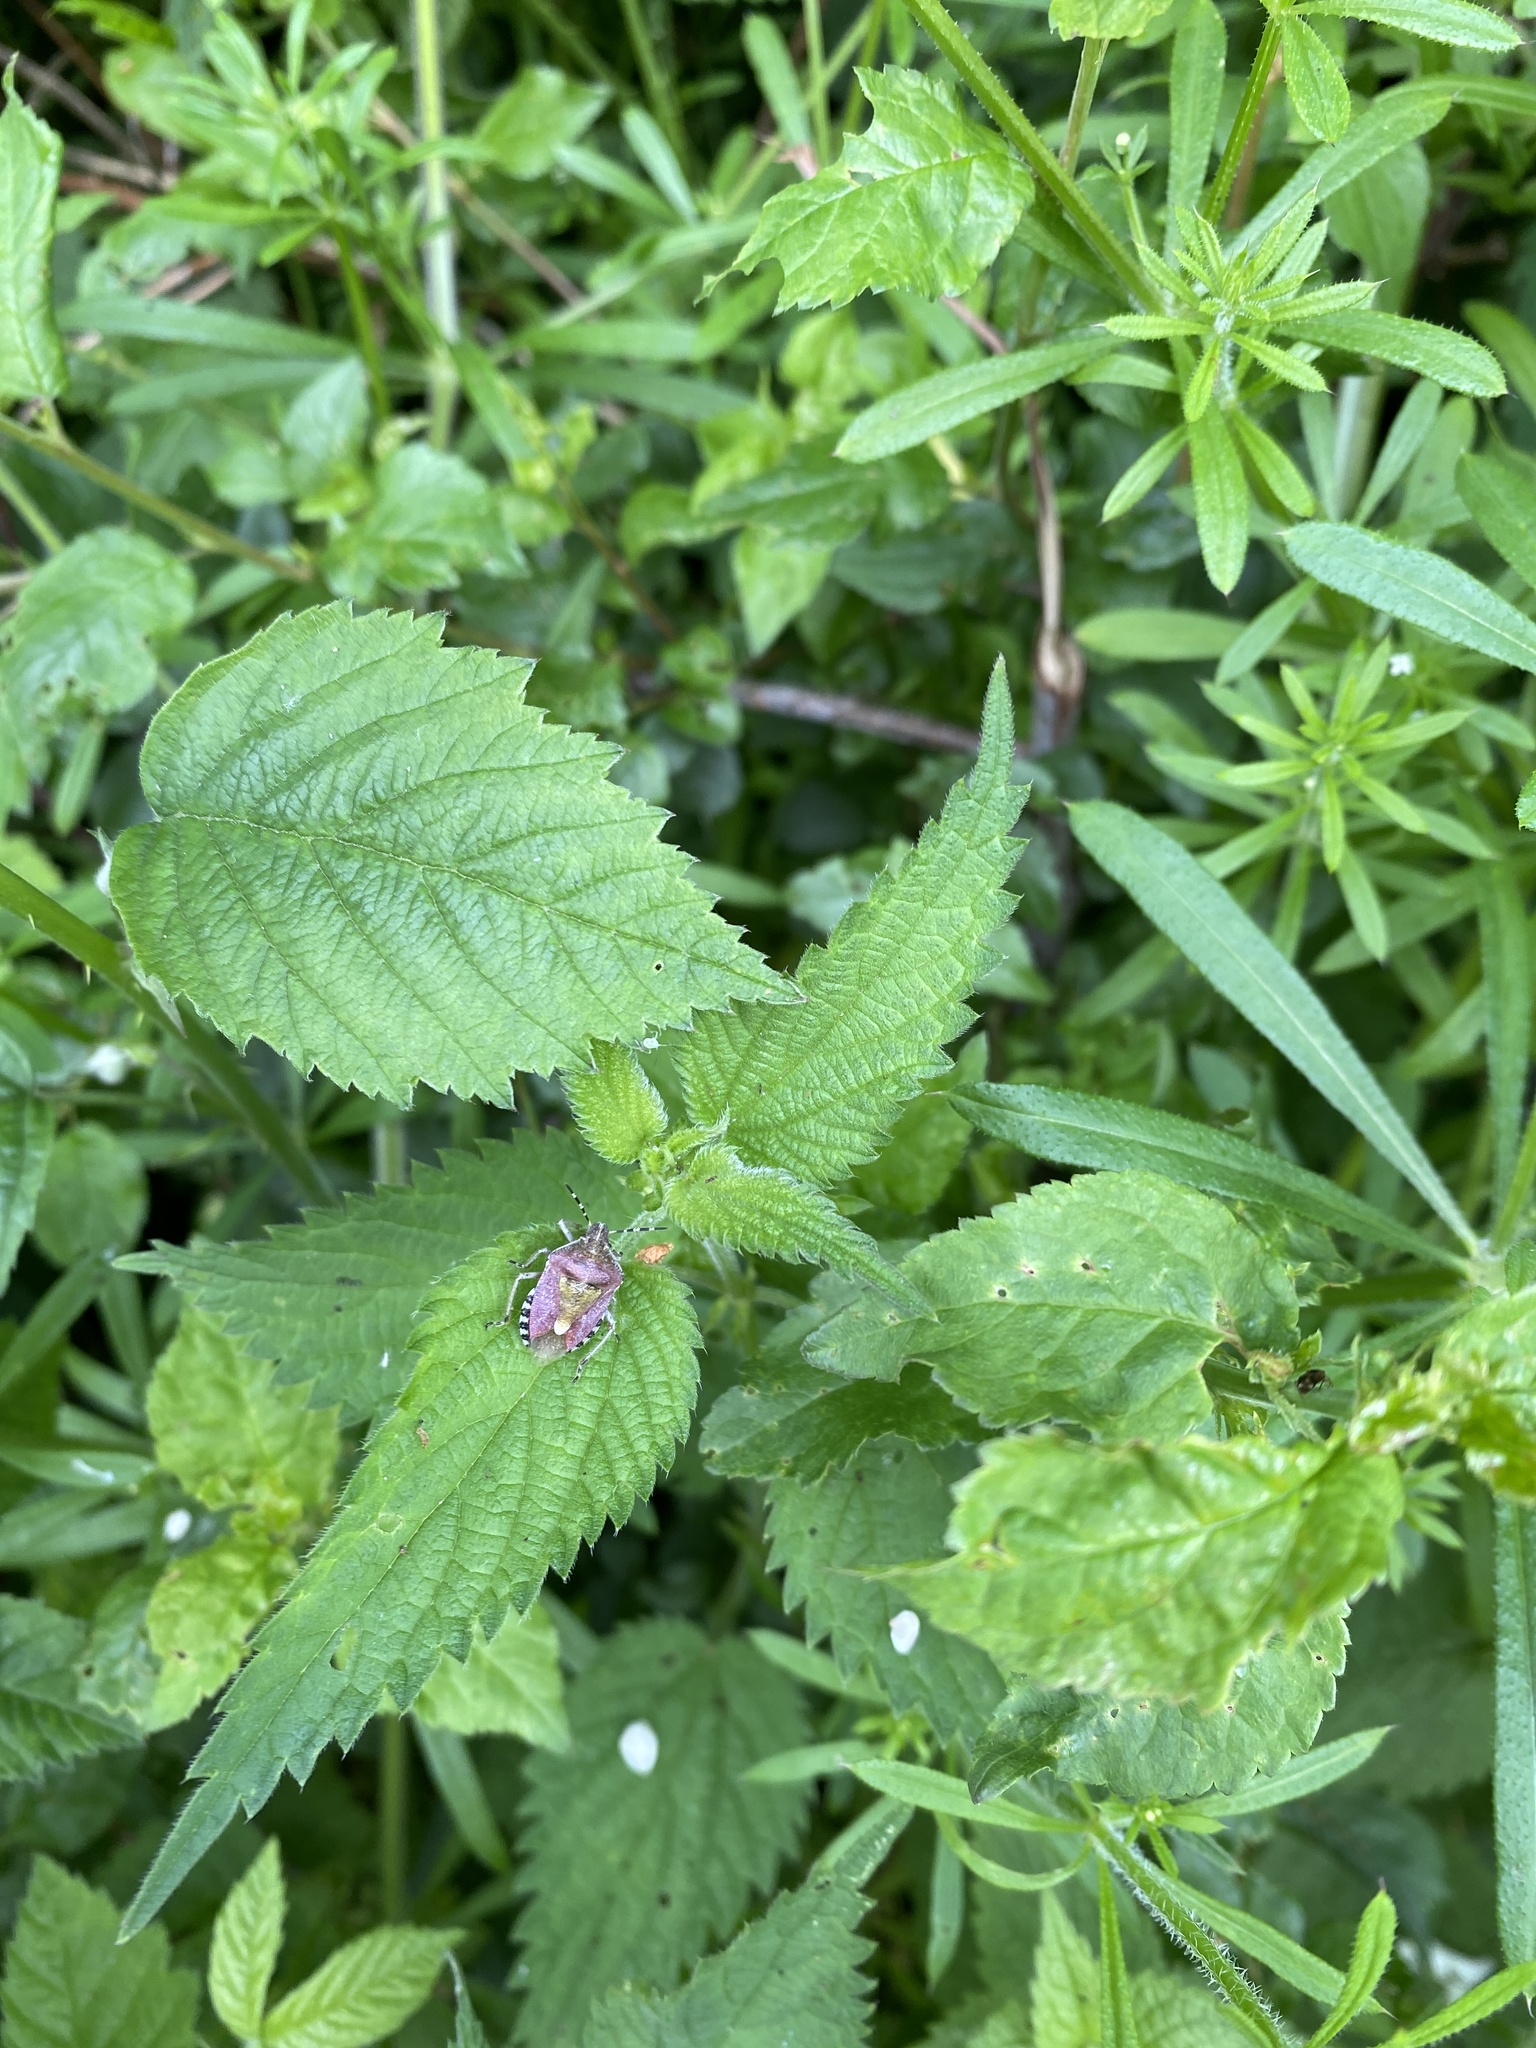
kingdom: Animalia
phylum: Arthropoda
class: Insecta
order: Hemiptera
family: Pentatomidae
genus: Dolycoris
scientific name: Dolycoris baccarum
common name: Sloe bug
